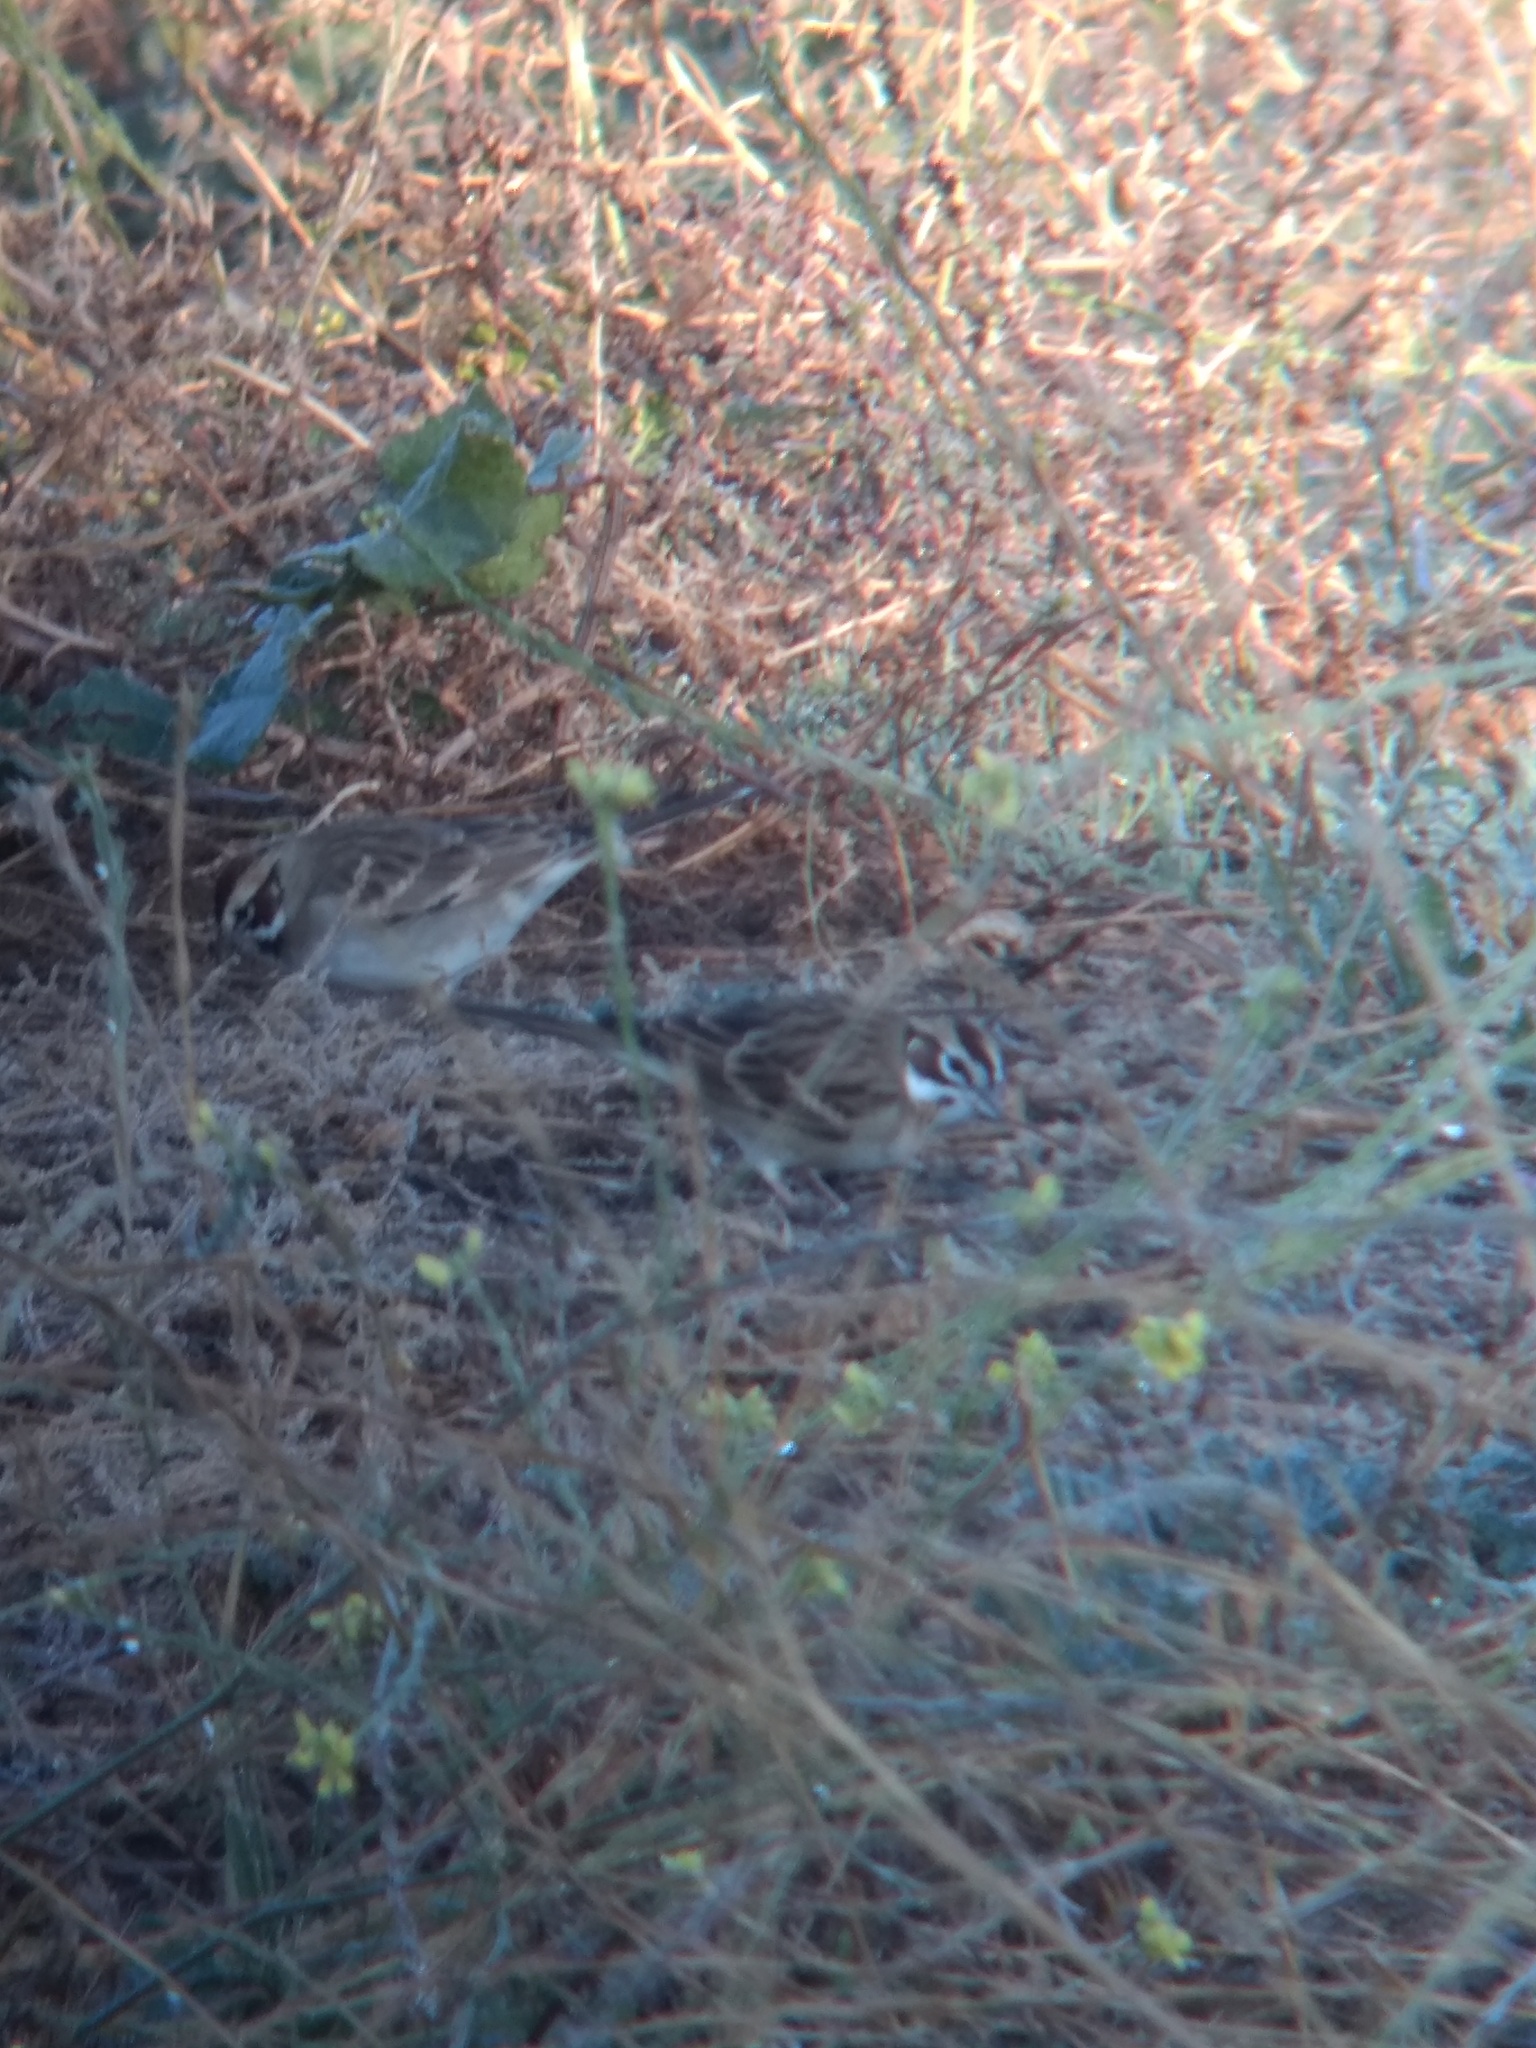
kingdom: Animalia
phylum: Chordata
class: Aves
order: Passeriformes
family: Passerellidae
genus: Chondestes
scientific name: Chondestes grammacus
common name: Lark sparrow
